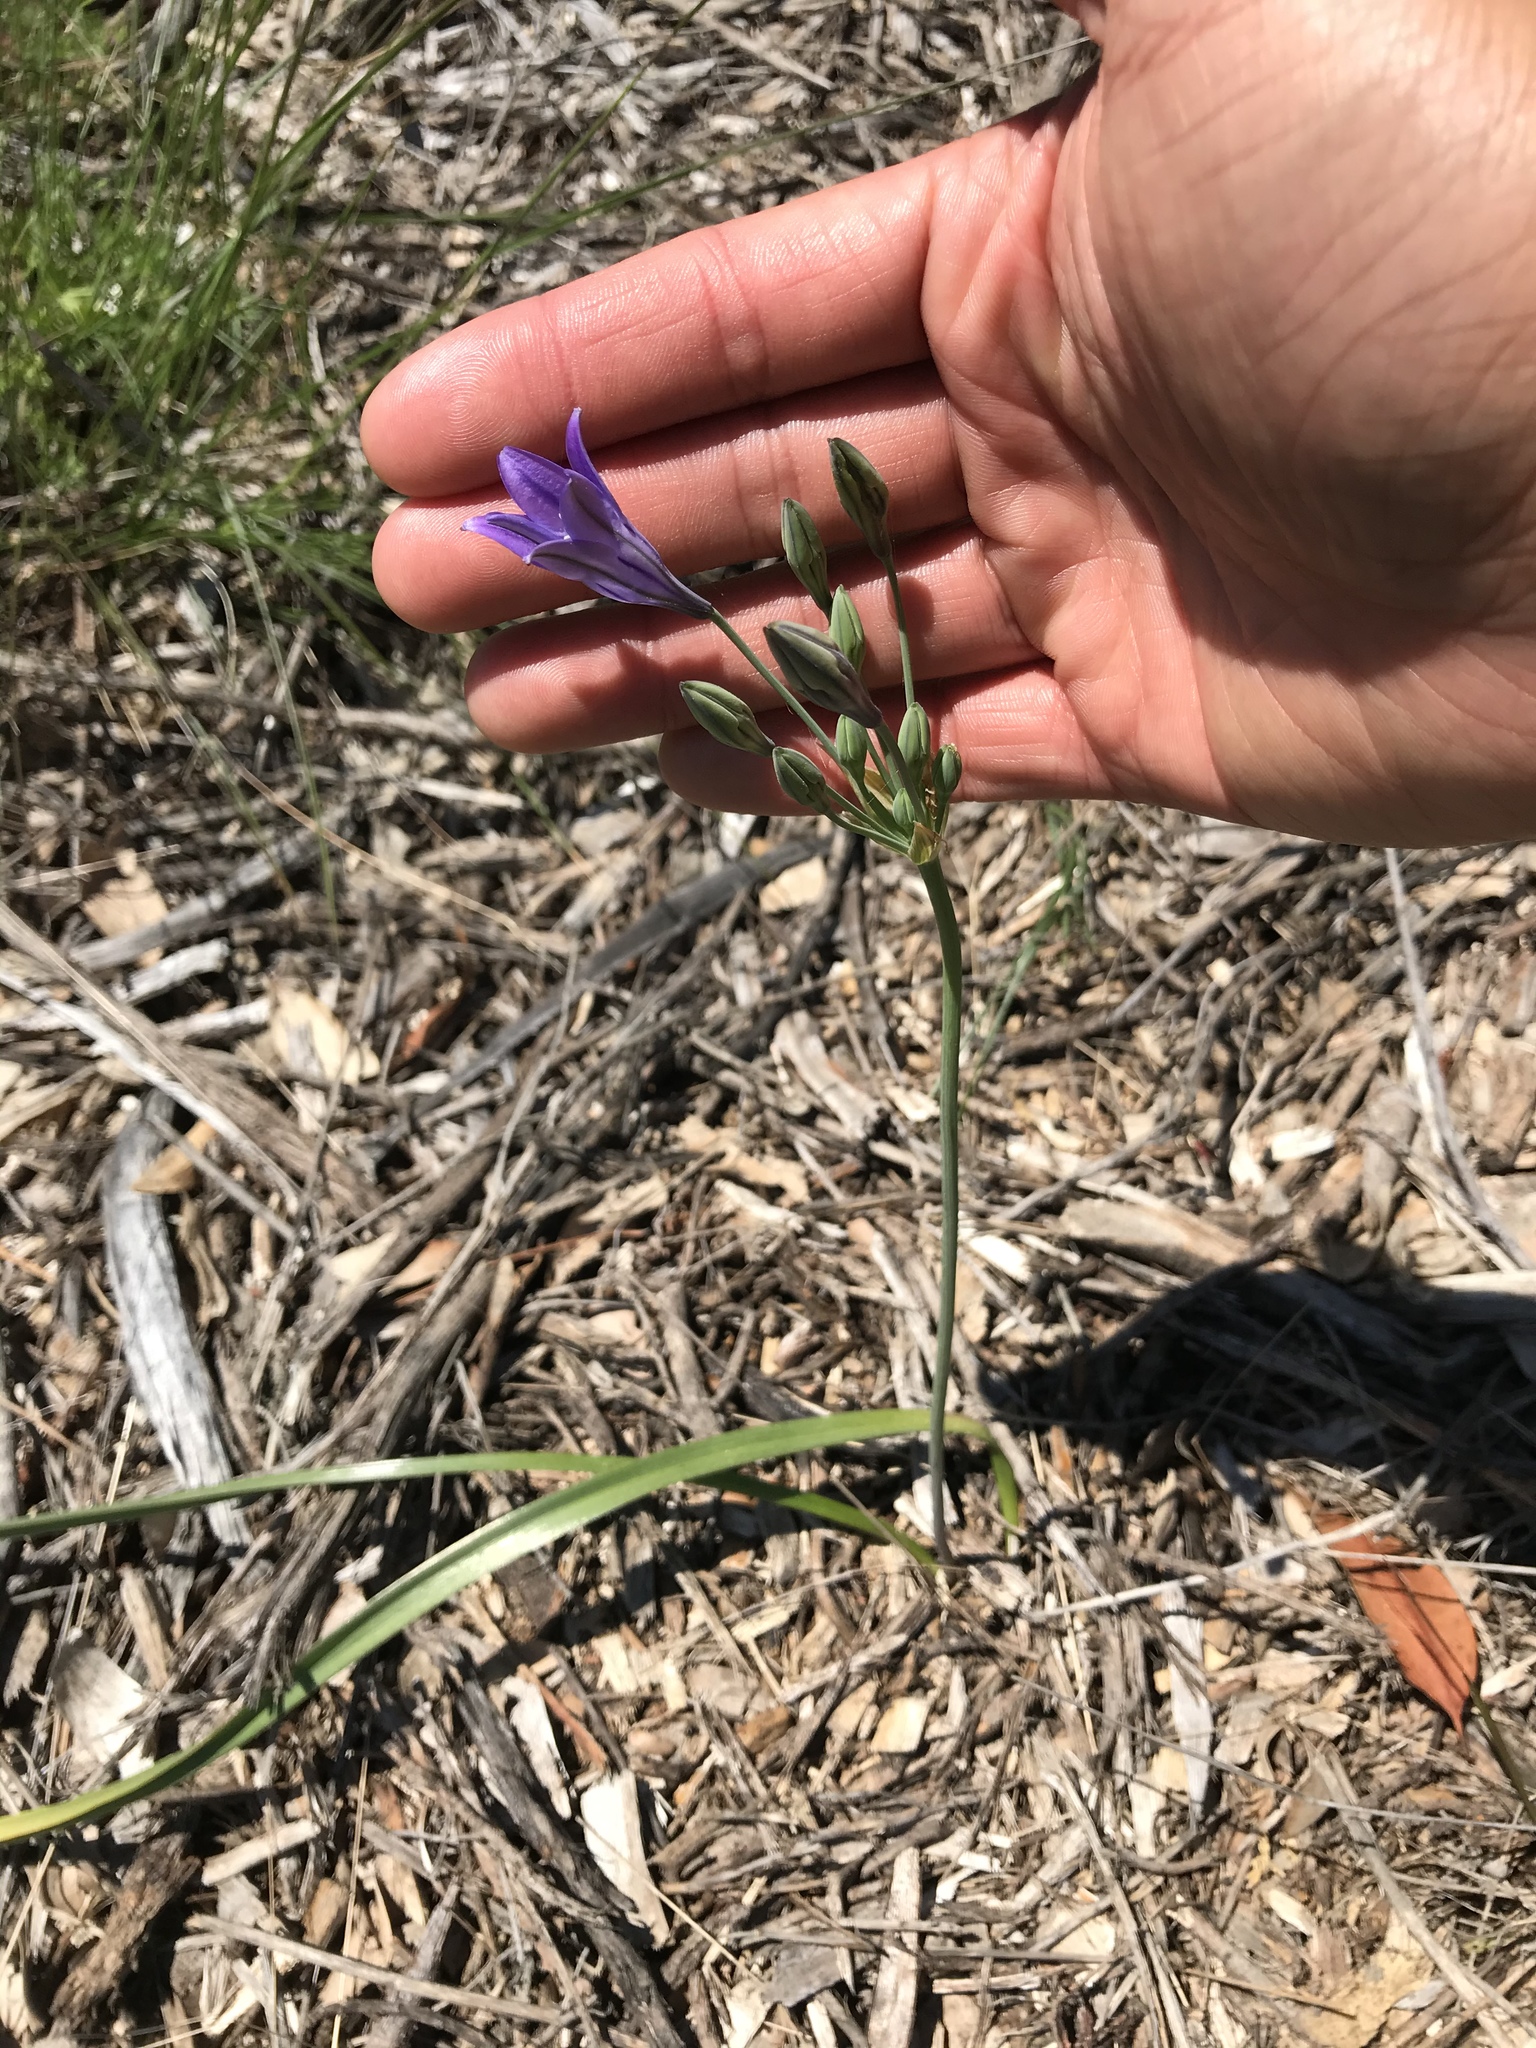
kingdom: Plantae
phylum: Tracheophyta
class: Liliopsida
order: Asparagales
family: Asparagaceae
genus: Triteleia
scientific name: Triteleia laxa
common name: Triplet-lily
